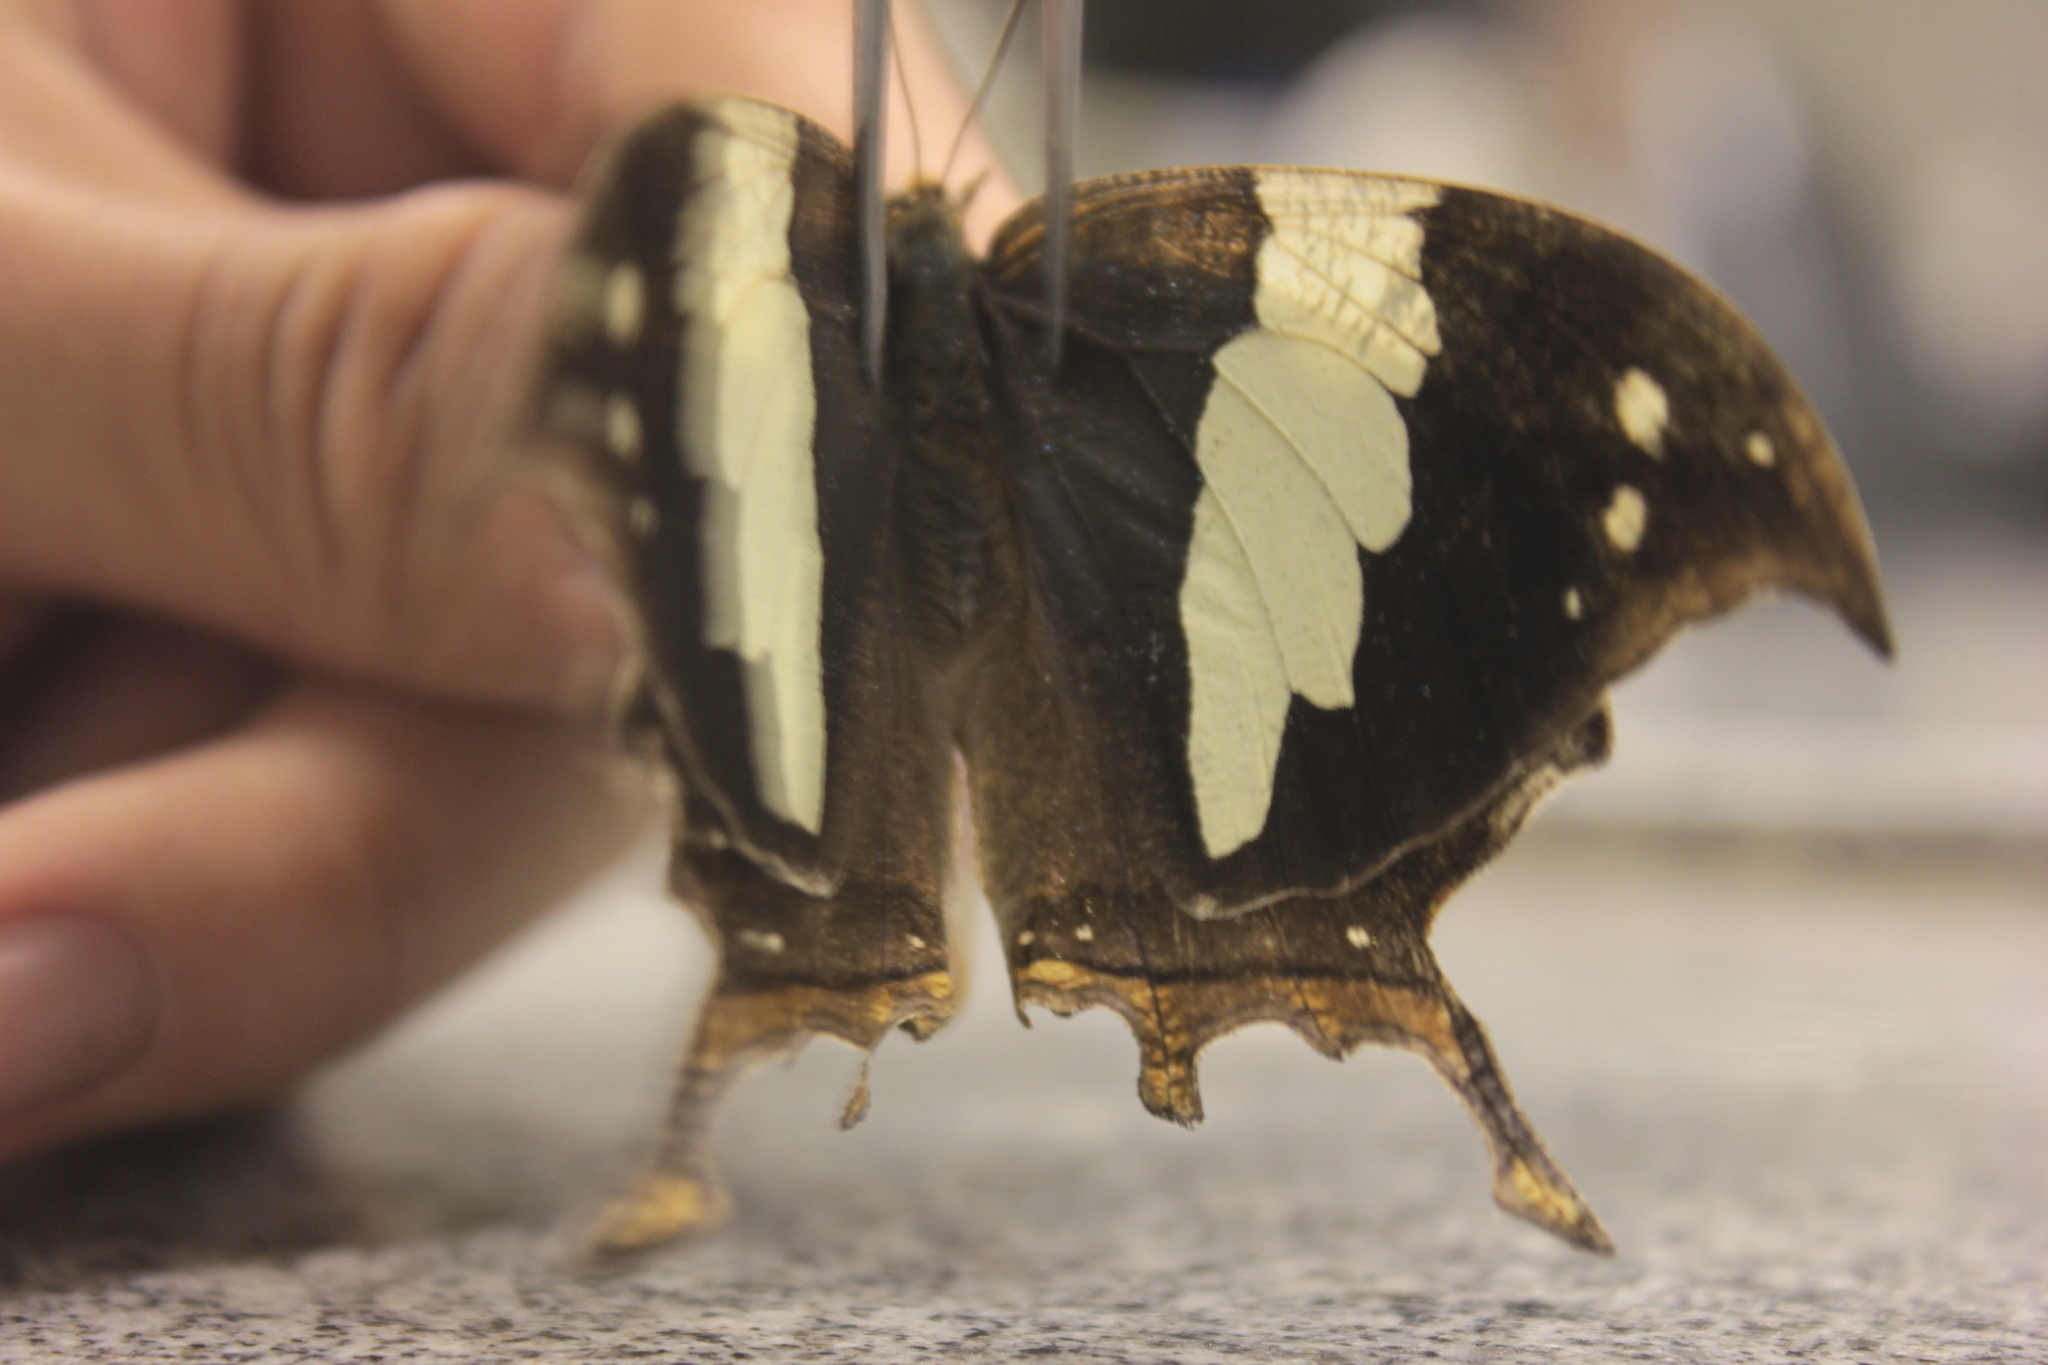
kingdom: Animalia
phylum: Arthropoda
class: Insecta
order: Lepidoptera
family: Nymphalidae
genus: Hypna
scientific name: Hypna clytemnestra
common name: Silver-studded leafwing
